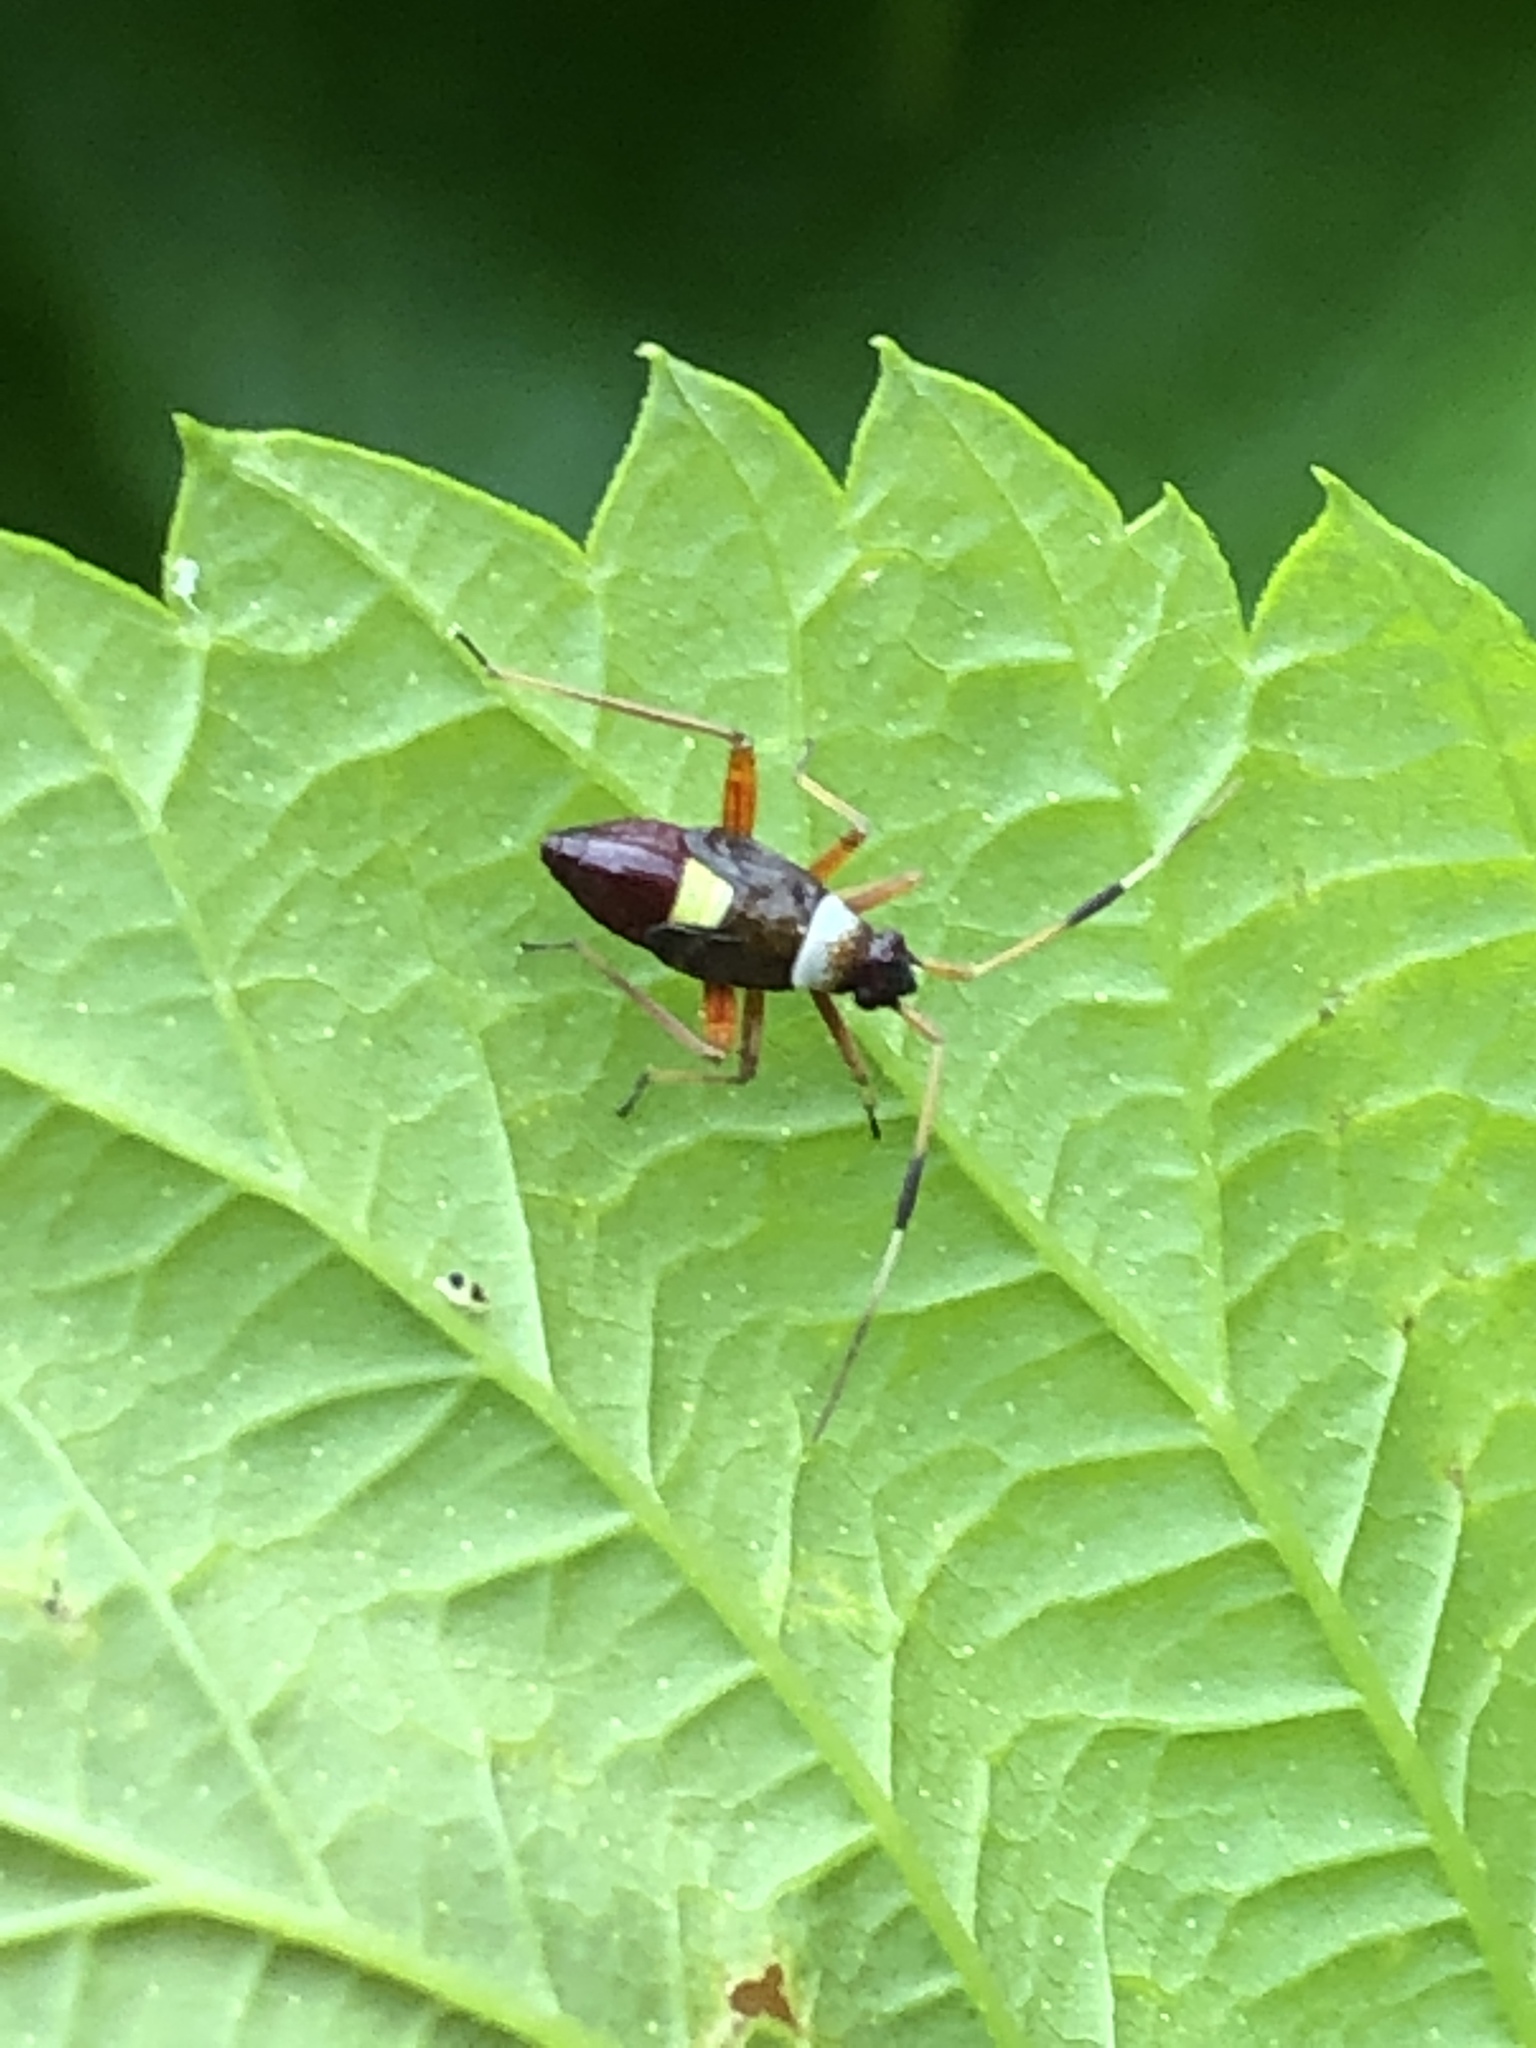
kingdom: Animalia
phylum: Arthropoda
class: Insecta
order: Hemiptera
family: Miridae
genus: Closterotomus
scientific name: Closterotomus biclavatus
